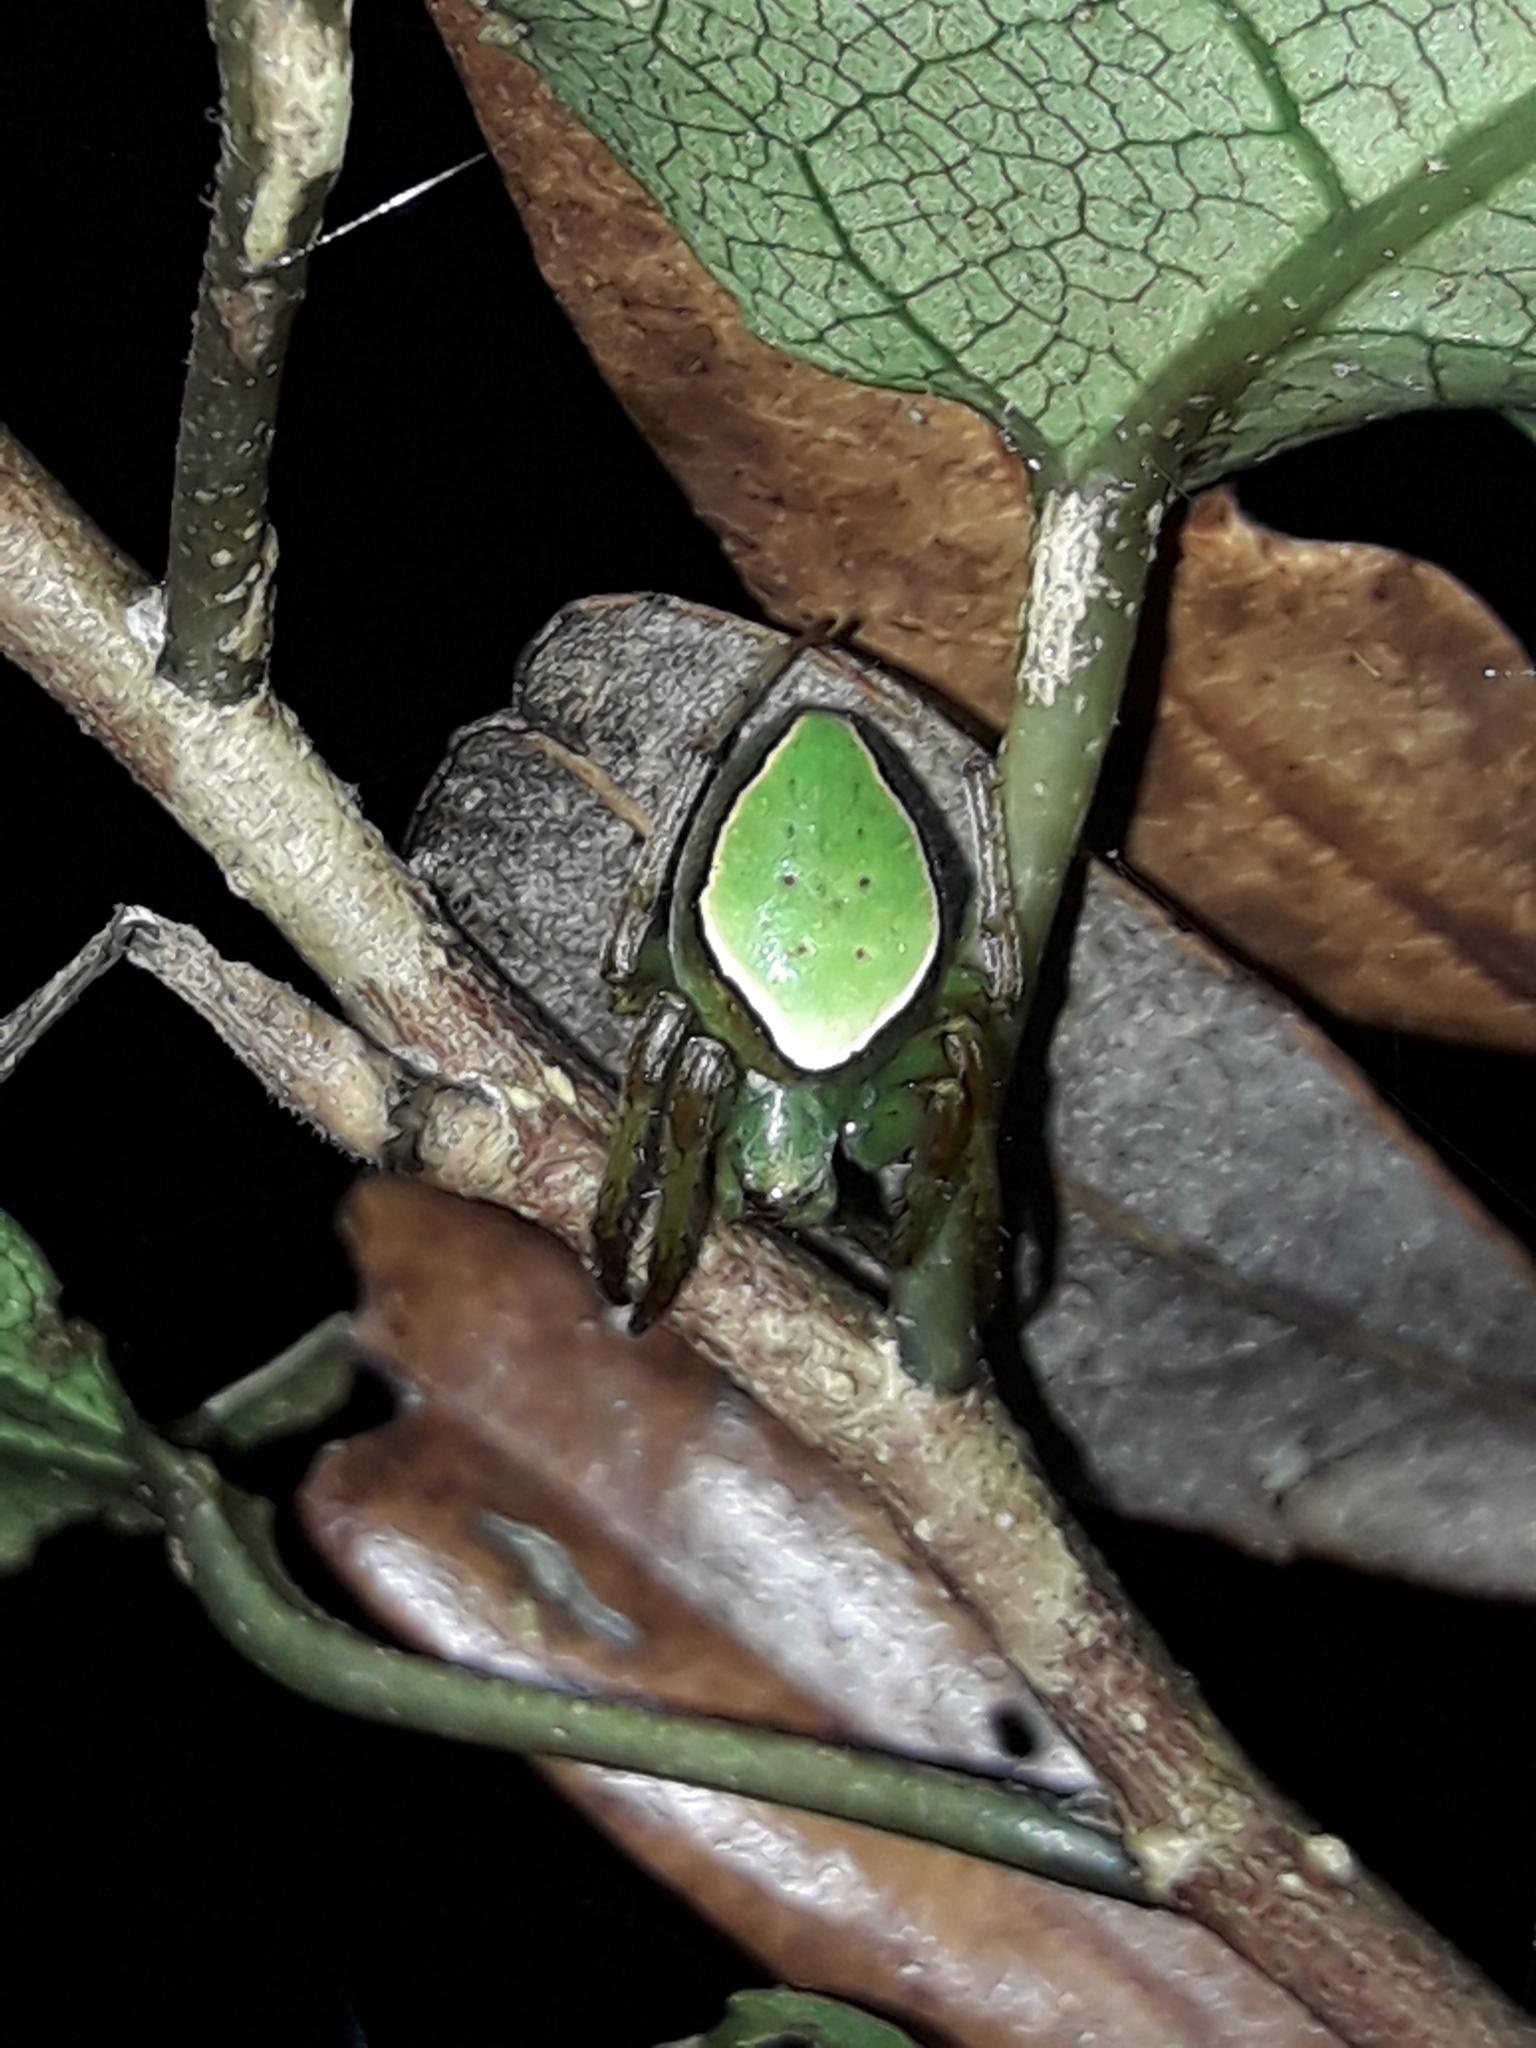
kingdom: Animalia
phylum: Arthropoda
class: Arachnida
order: Araneae
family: Araneidae
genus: Colaranea
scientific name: Colaranea viriditas
